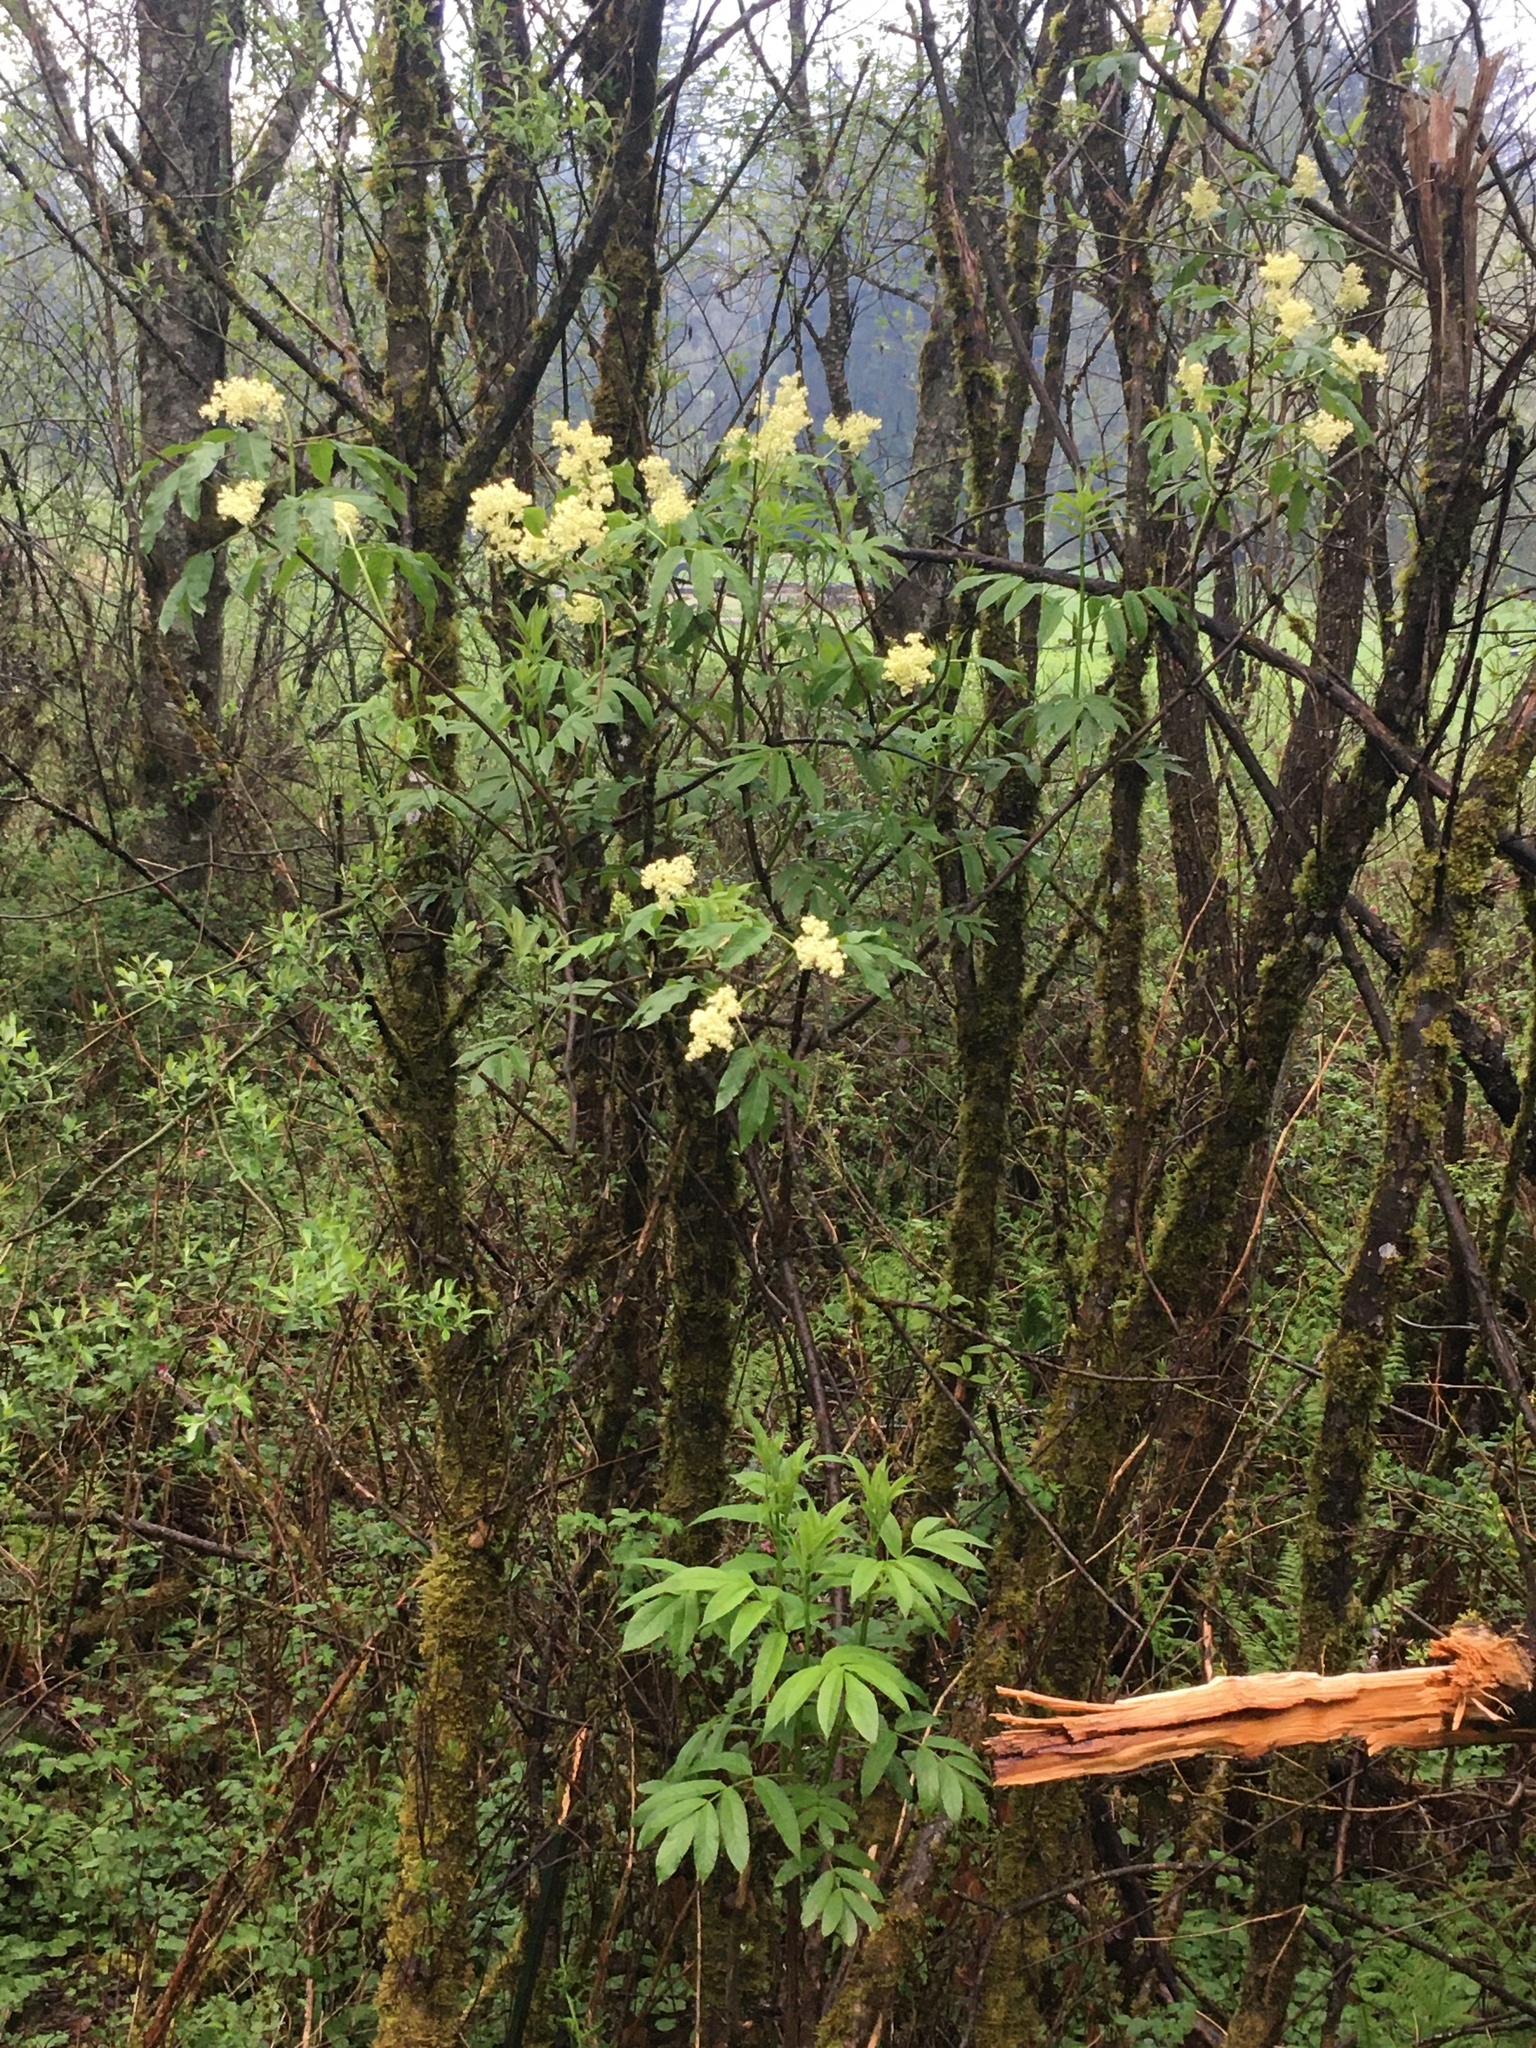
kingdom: Plantae
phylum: Tracheophyta
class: Magnoliopsida
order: Dipsacales
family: Viburnaceae
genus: Sambucus
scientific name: Sambucus racemosa
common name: Red-berried elder
